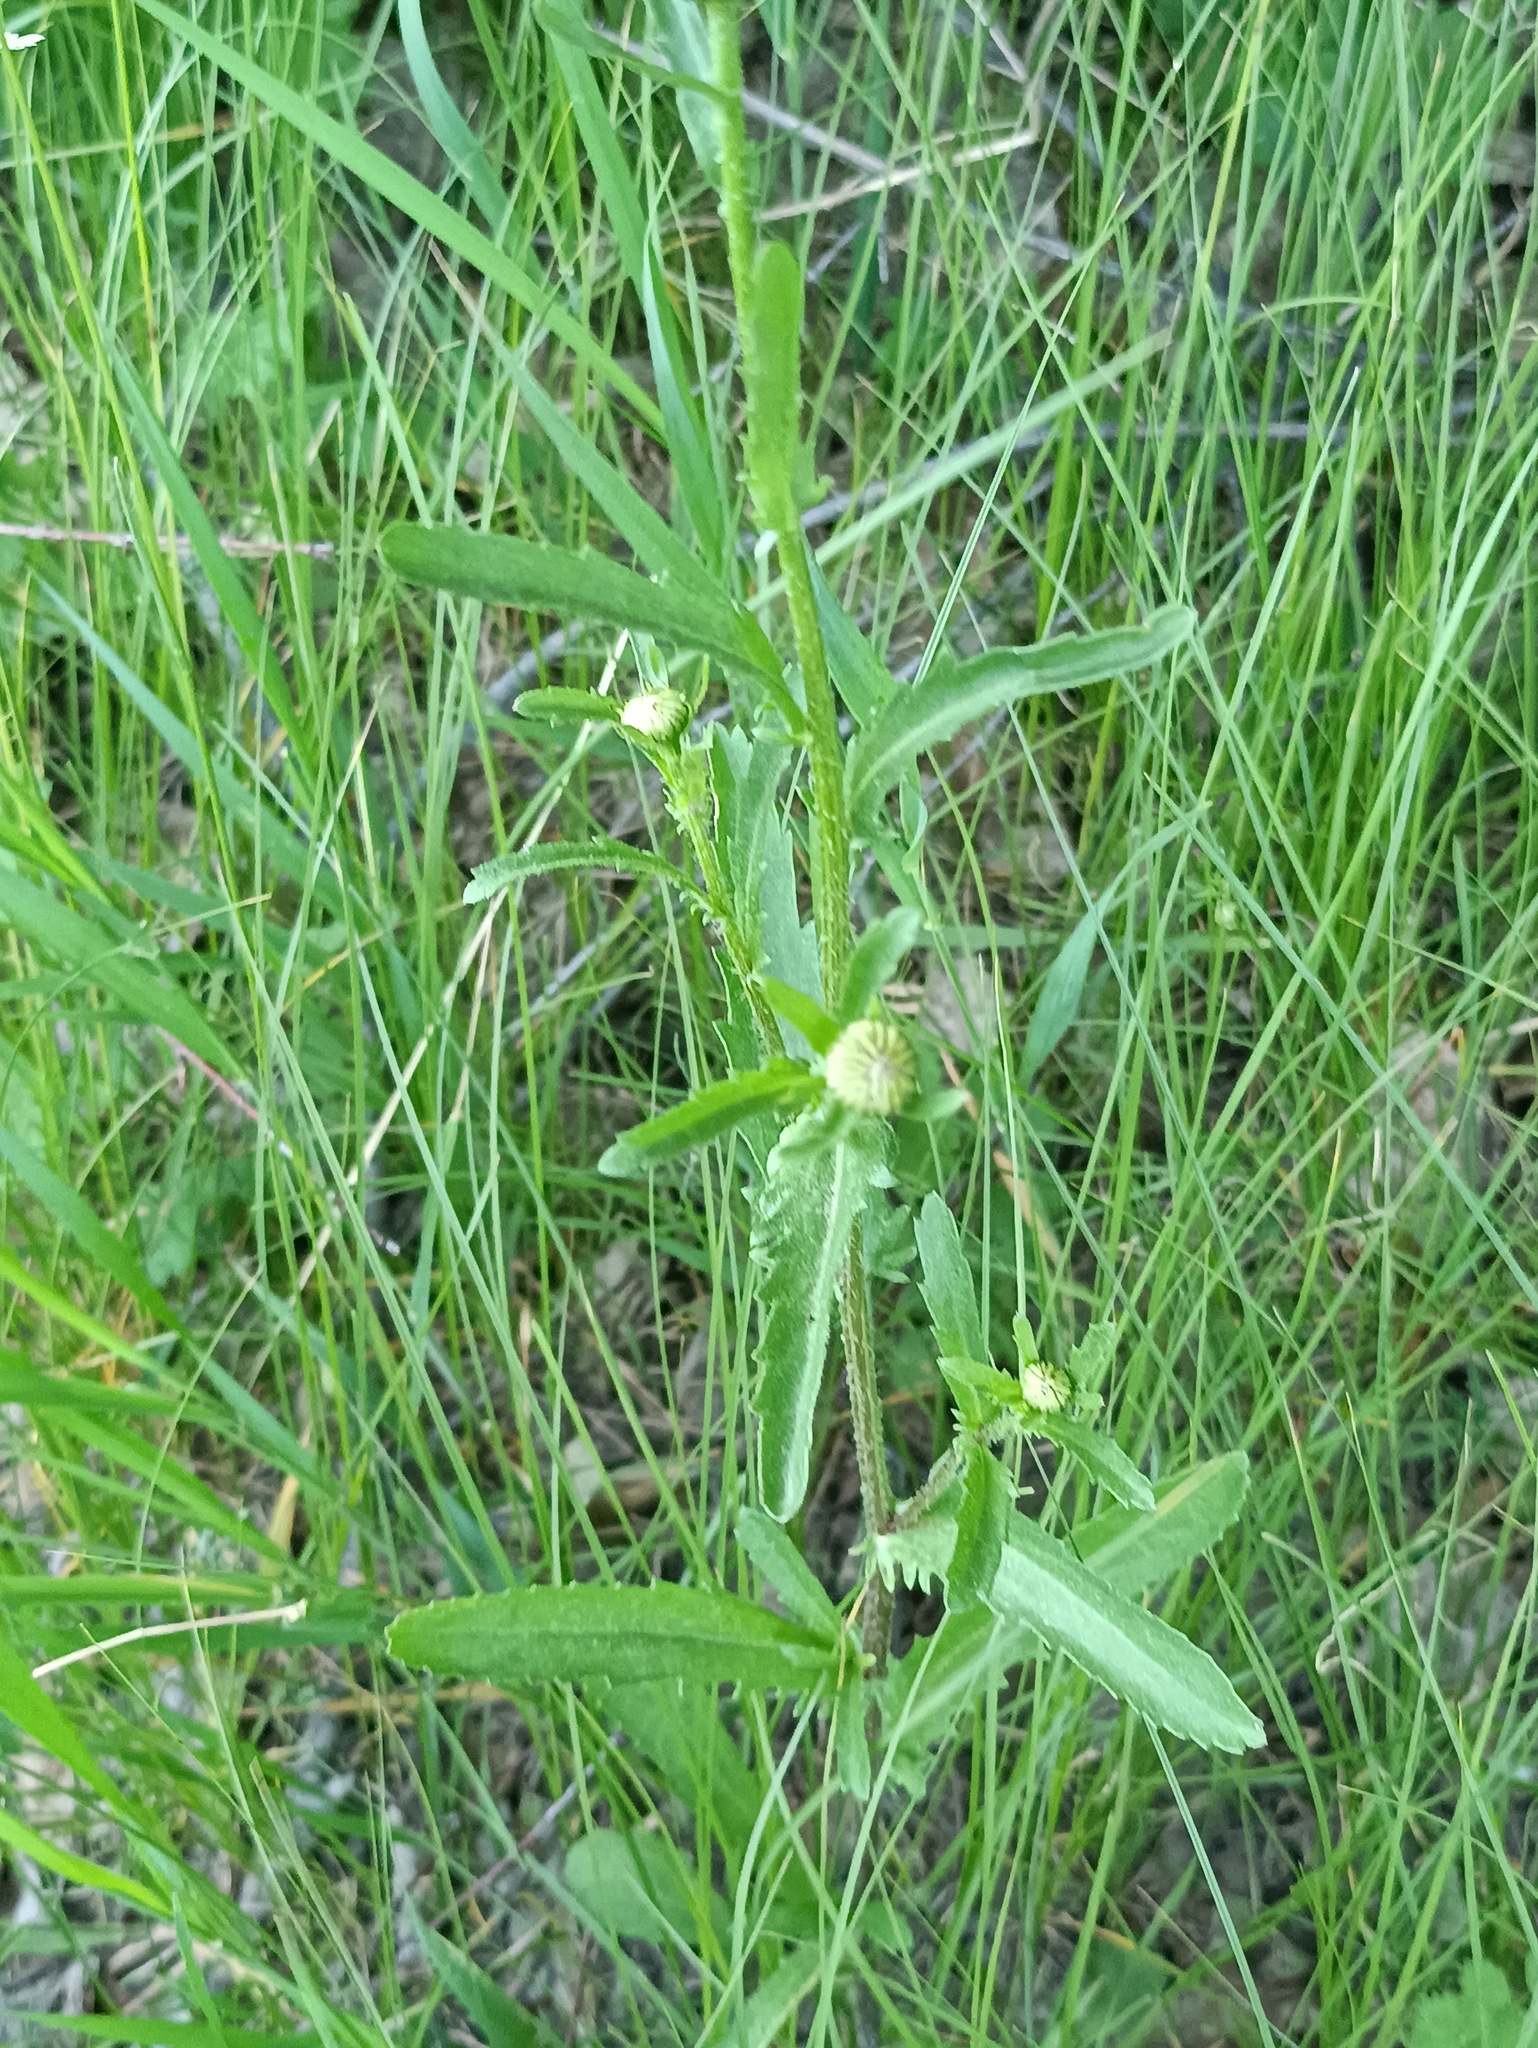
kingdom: Plantae
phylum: Tracheophyta
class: Magnoliopsida
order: Asterales
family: Asteraceae
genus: Leucanthemum
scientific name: Leucanthemum vulgare
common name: Oxeye daisy
